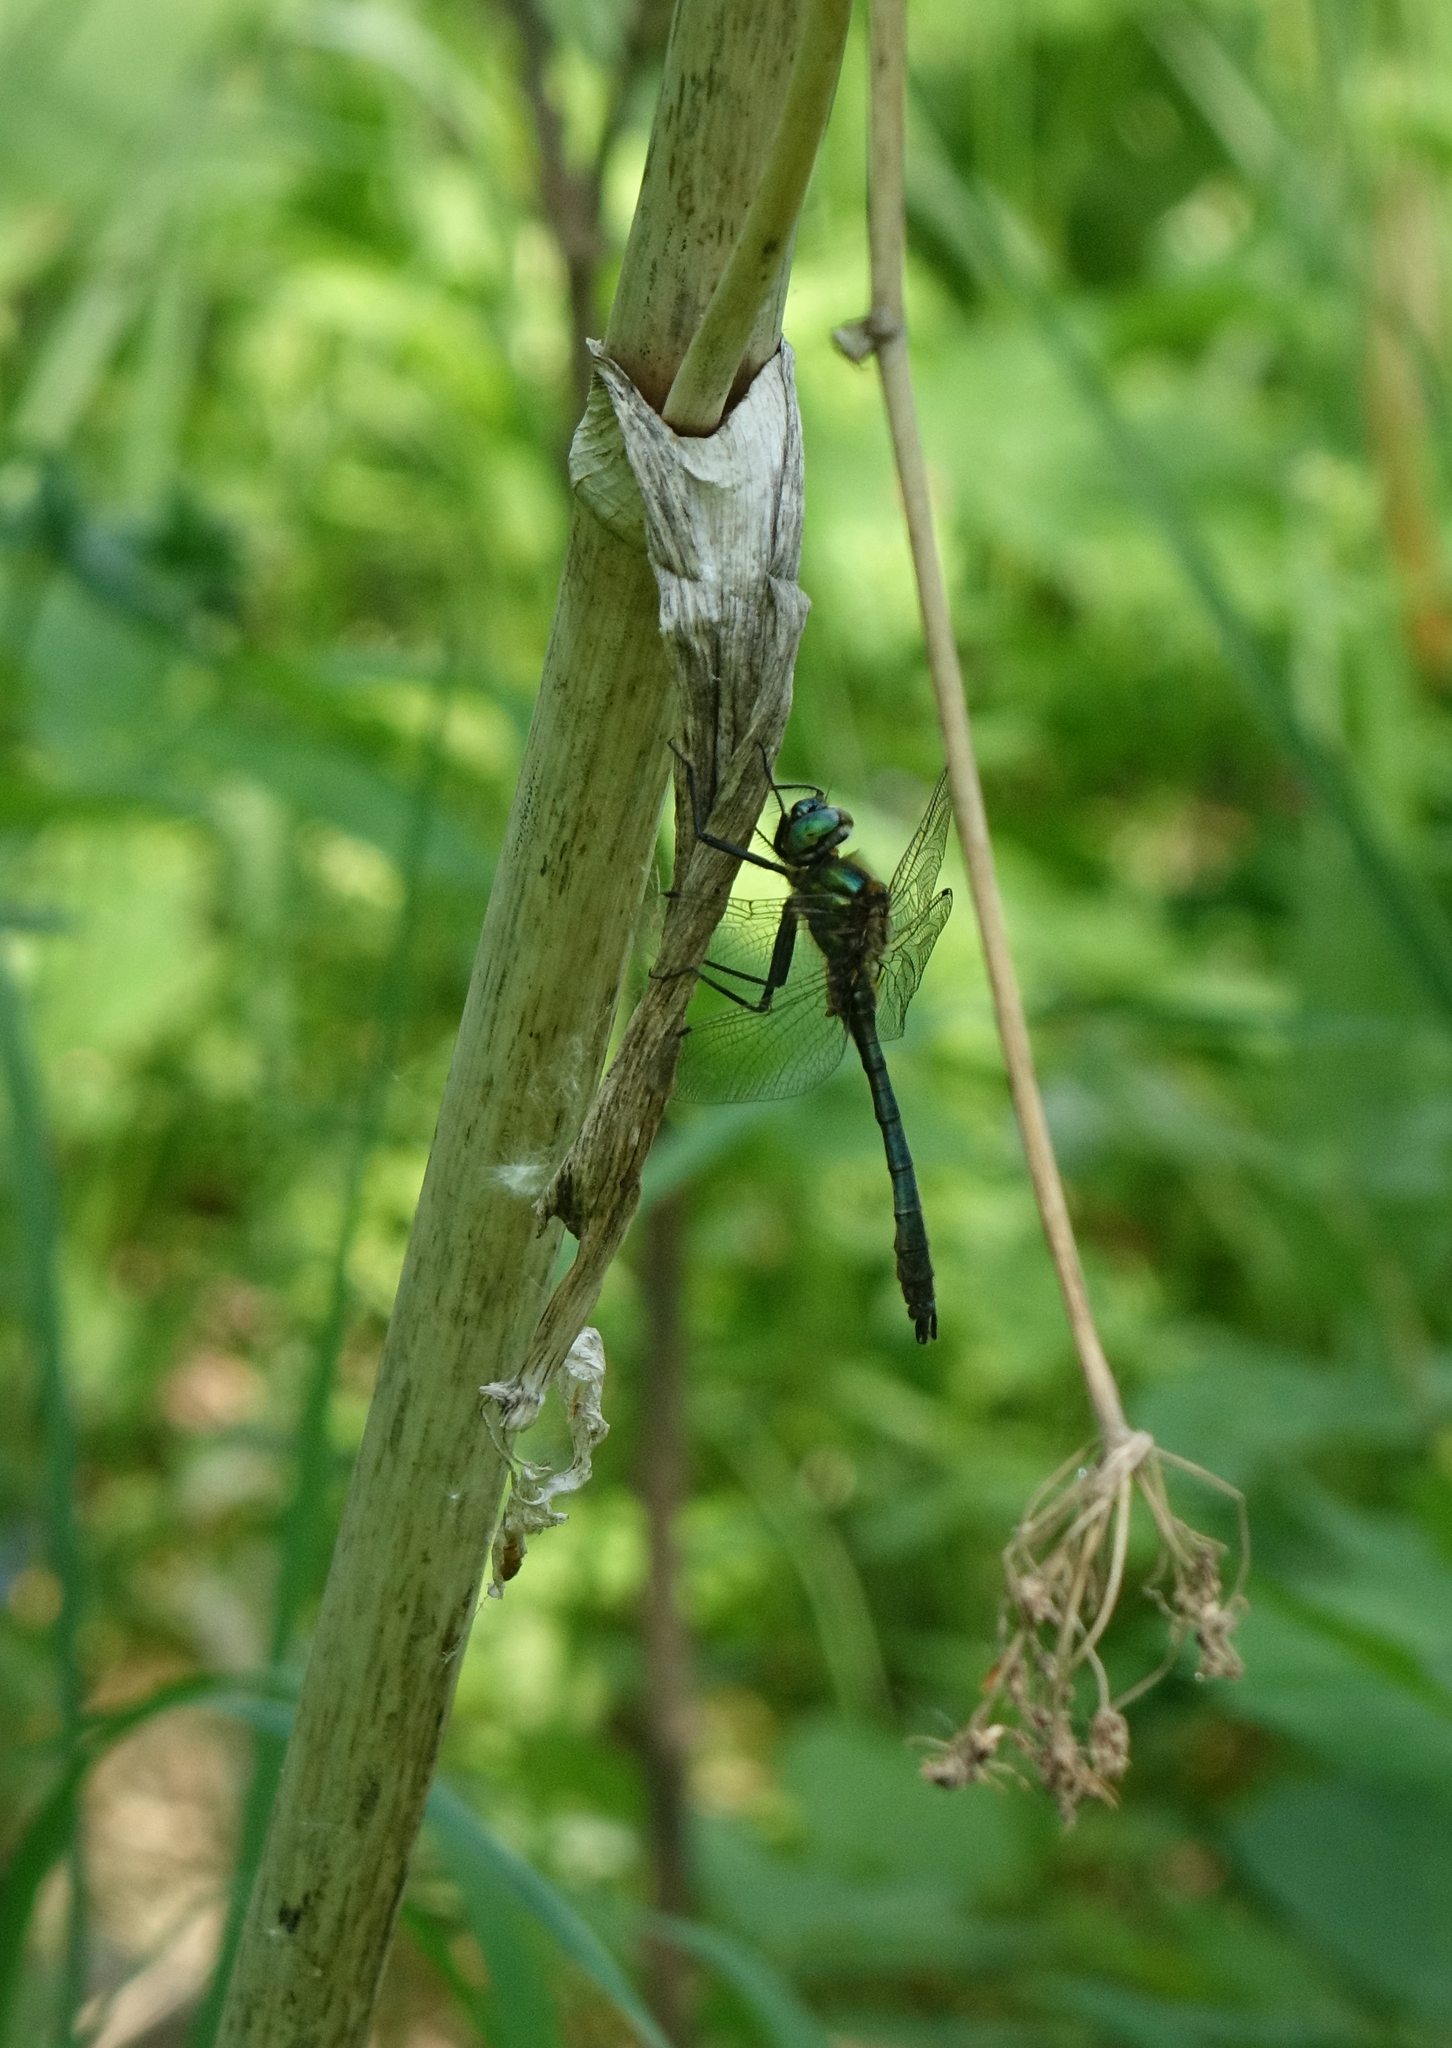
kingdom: Animalia
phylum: Arthropoda
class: Insecta
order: Odonata
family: Corduliidae
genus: Cordulia
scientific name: Cordulia aenea
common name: Downy emerald
